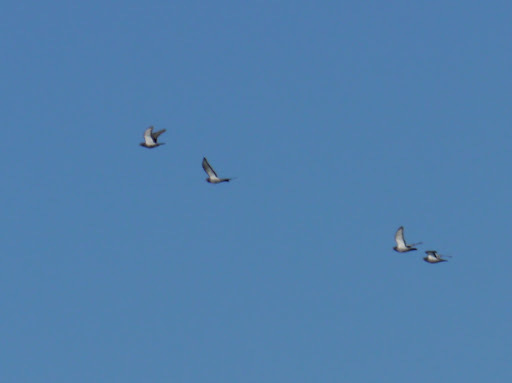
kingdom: Animalia
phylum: Chordata
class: Aves
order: Columbiformes
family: Columbidae
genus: Columba
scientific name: Columba livia
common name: Rock pigeon
